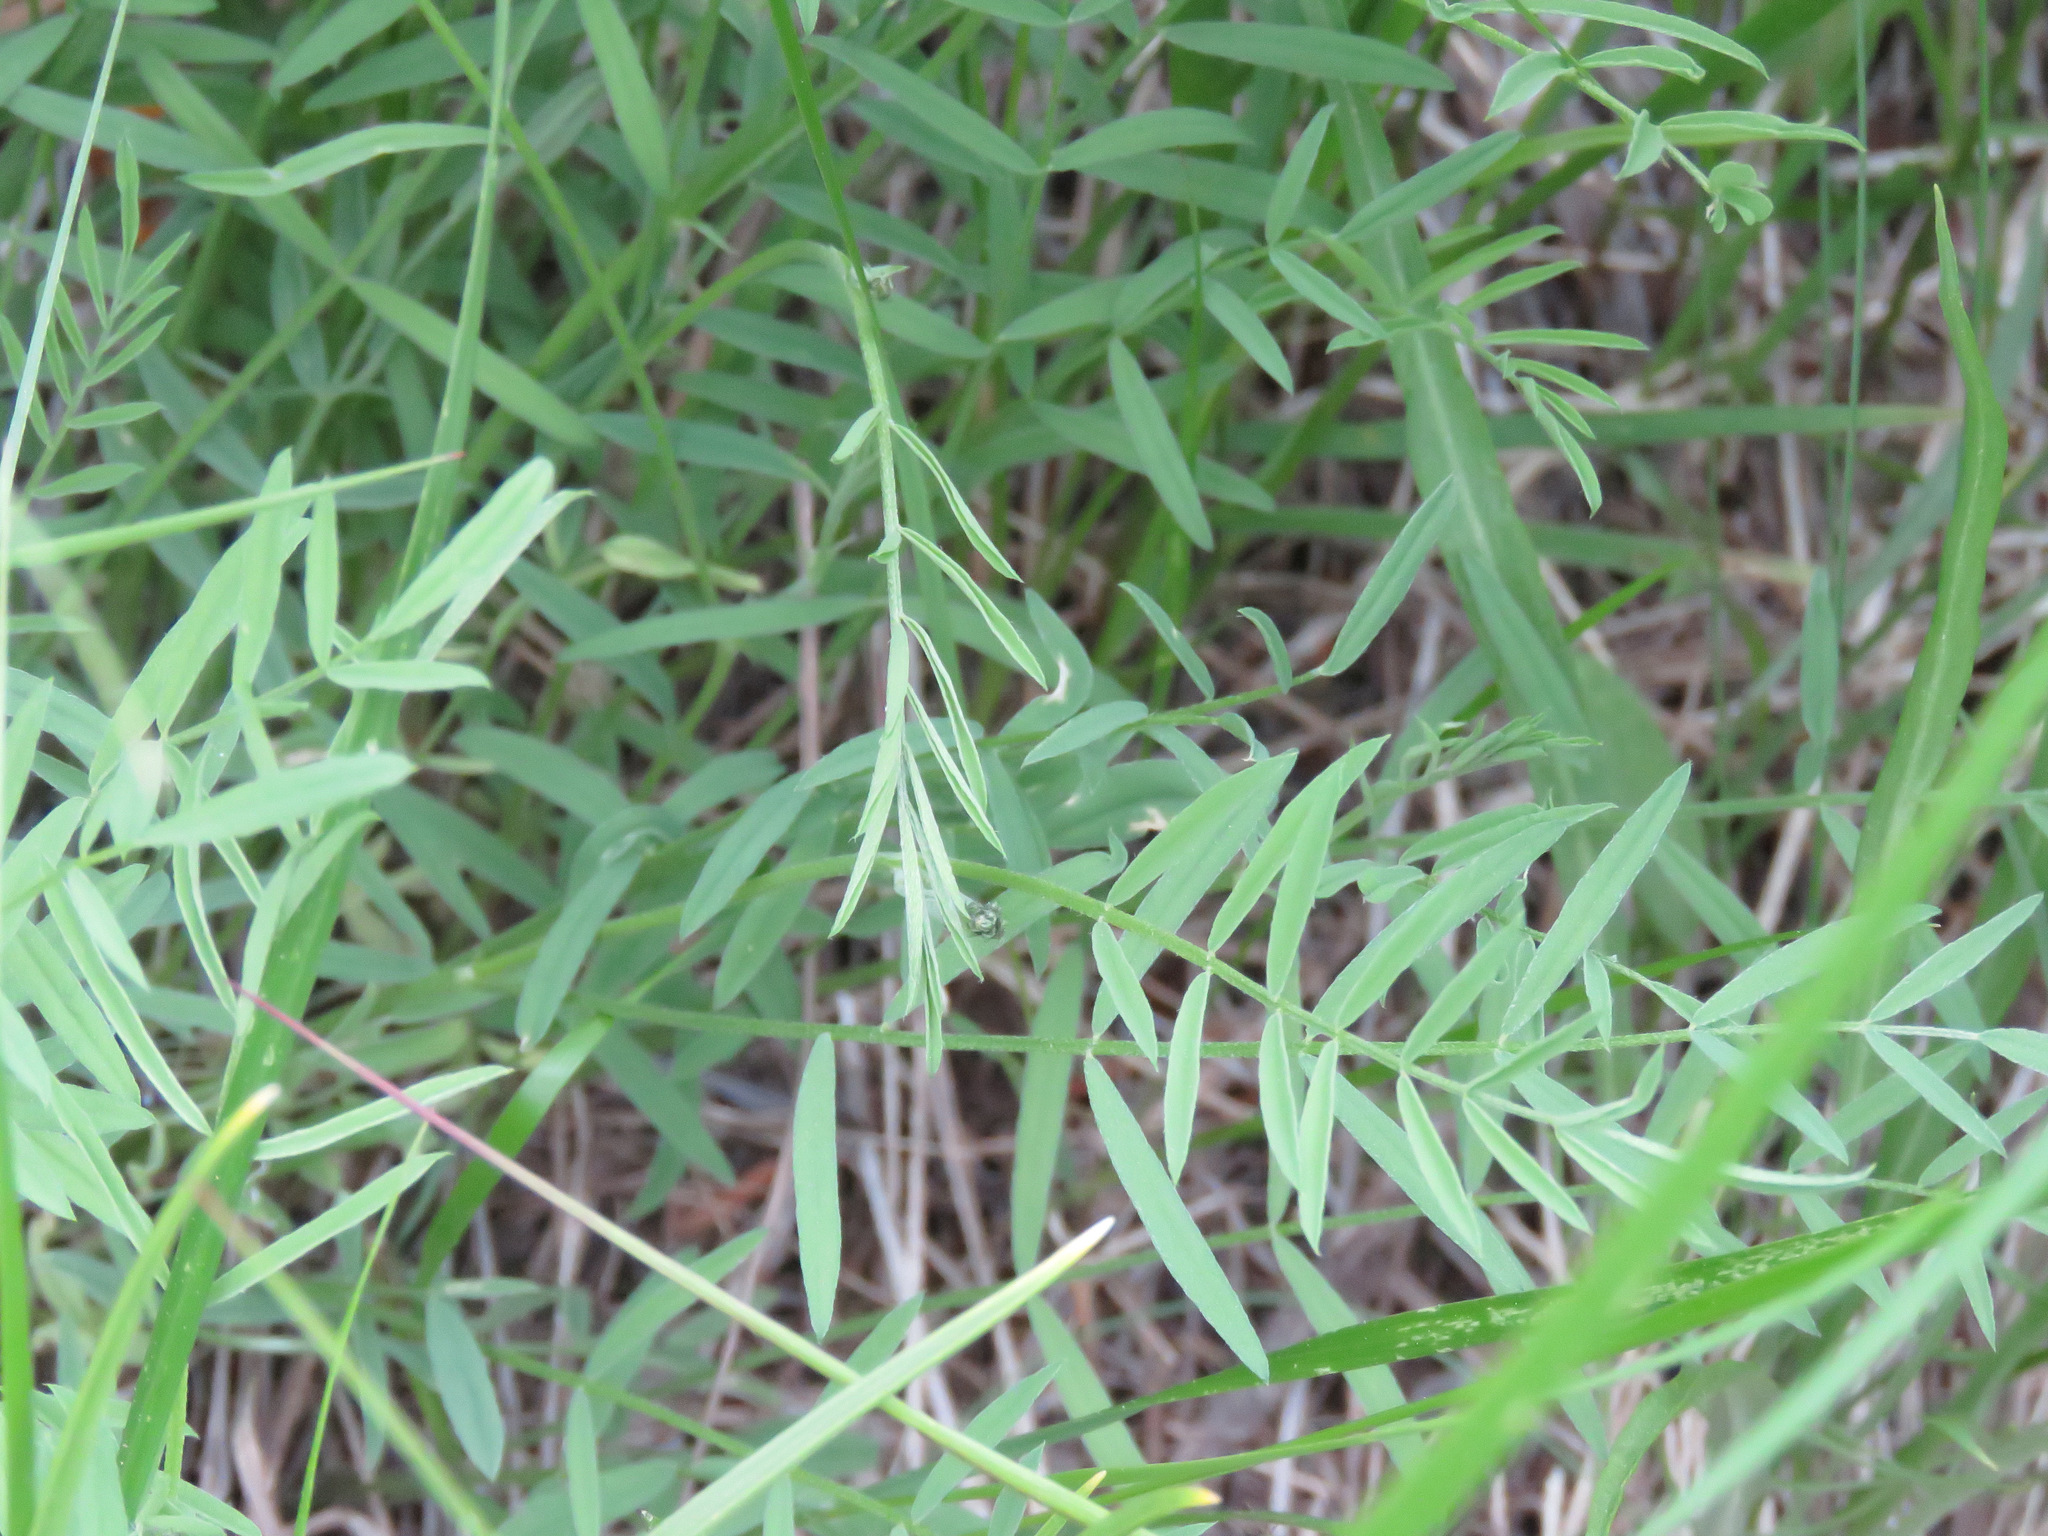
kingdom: Plantae
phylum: Tracheophyta
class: Magnoliopsida
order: Fabales
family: Fabaceae
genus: Astragalus
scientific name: Astragalus miser
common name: Timber milkvetch
